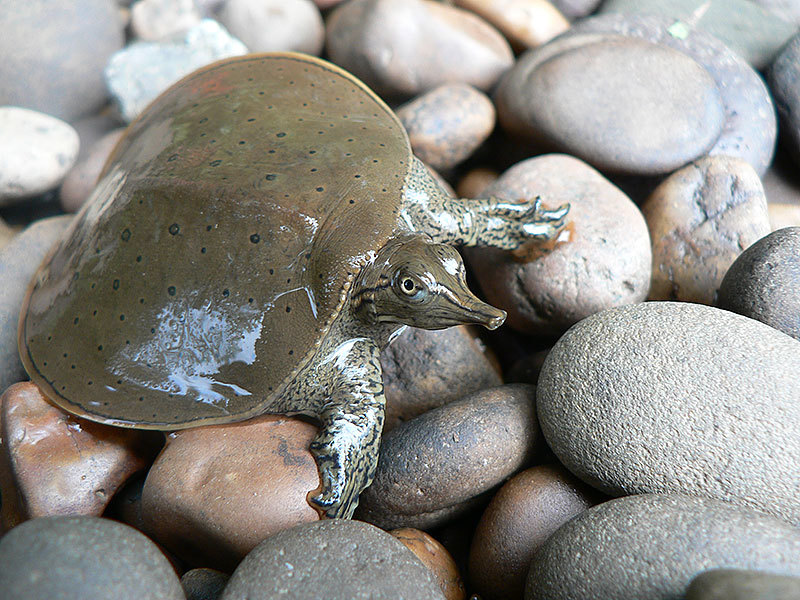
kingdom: Animalia
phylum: Chordata
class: Testudines
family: Trionychidae
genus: Apalone
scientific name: Apalone spinifera
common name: Spiny softshell turtle
